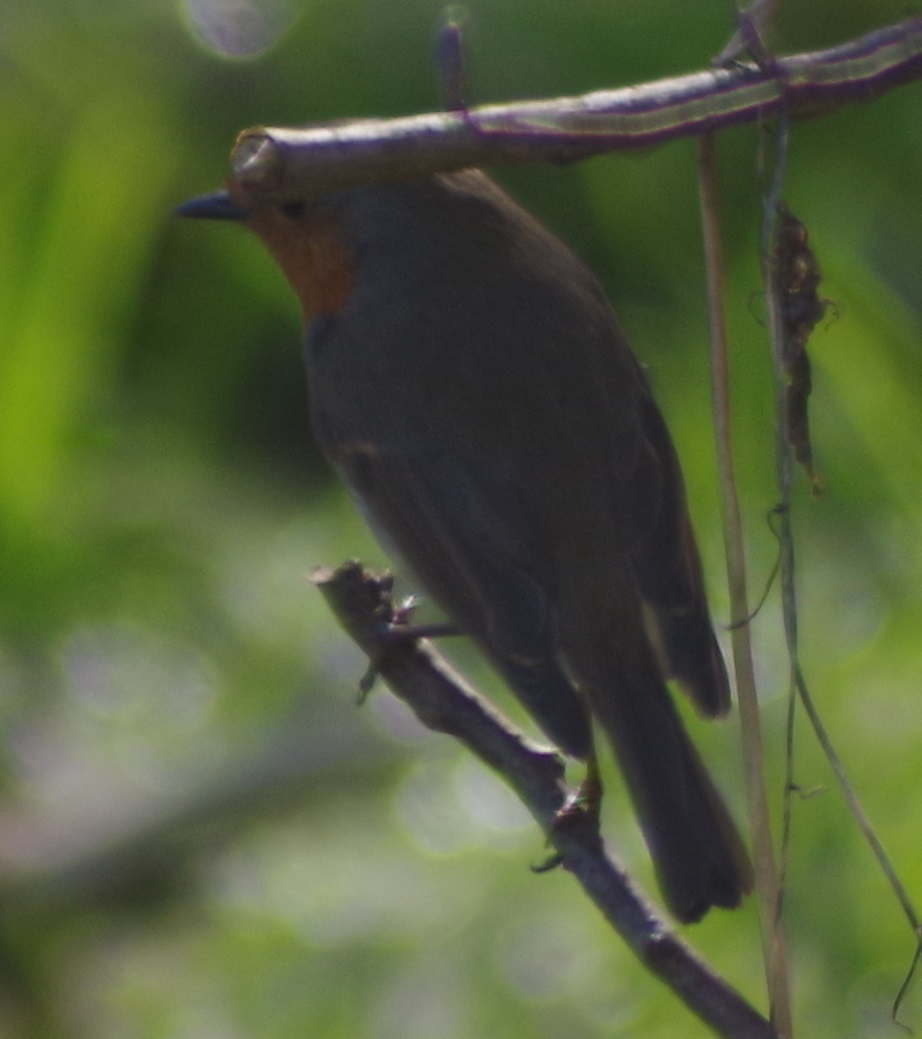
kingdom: Animalia
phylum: Chordata
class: Aves
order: Passeriformes
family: Muscicapidae
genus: Erithacus
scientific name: Erithacus rubecula
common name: European robin
